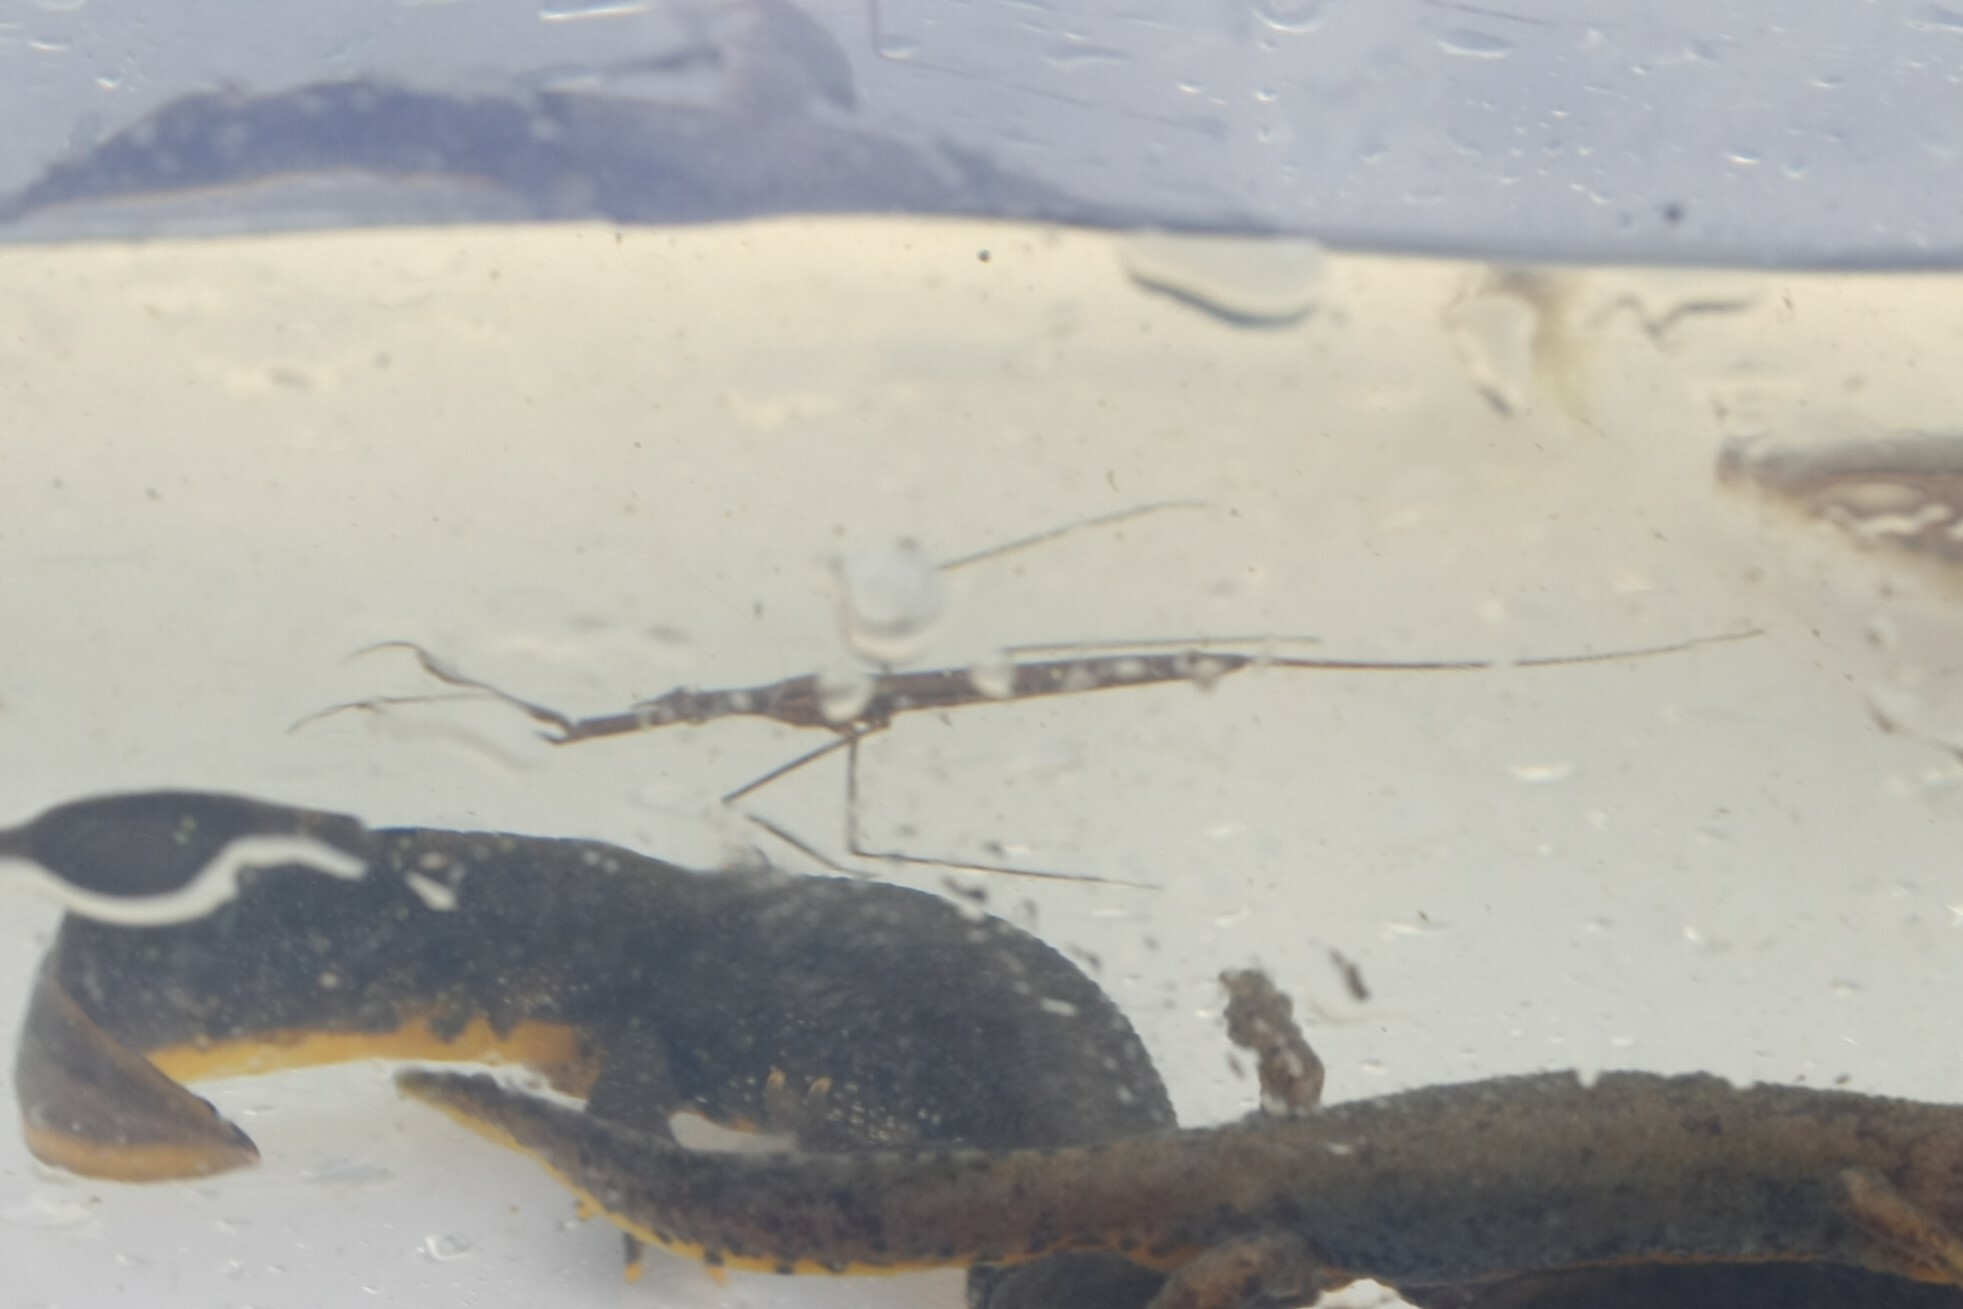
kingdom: Animalia
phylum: Arthropoda
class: Insecta
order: Hemiptera
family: Nepidae
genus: Ranatra
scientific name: Ranatra linearis
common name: Water stick insect
